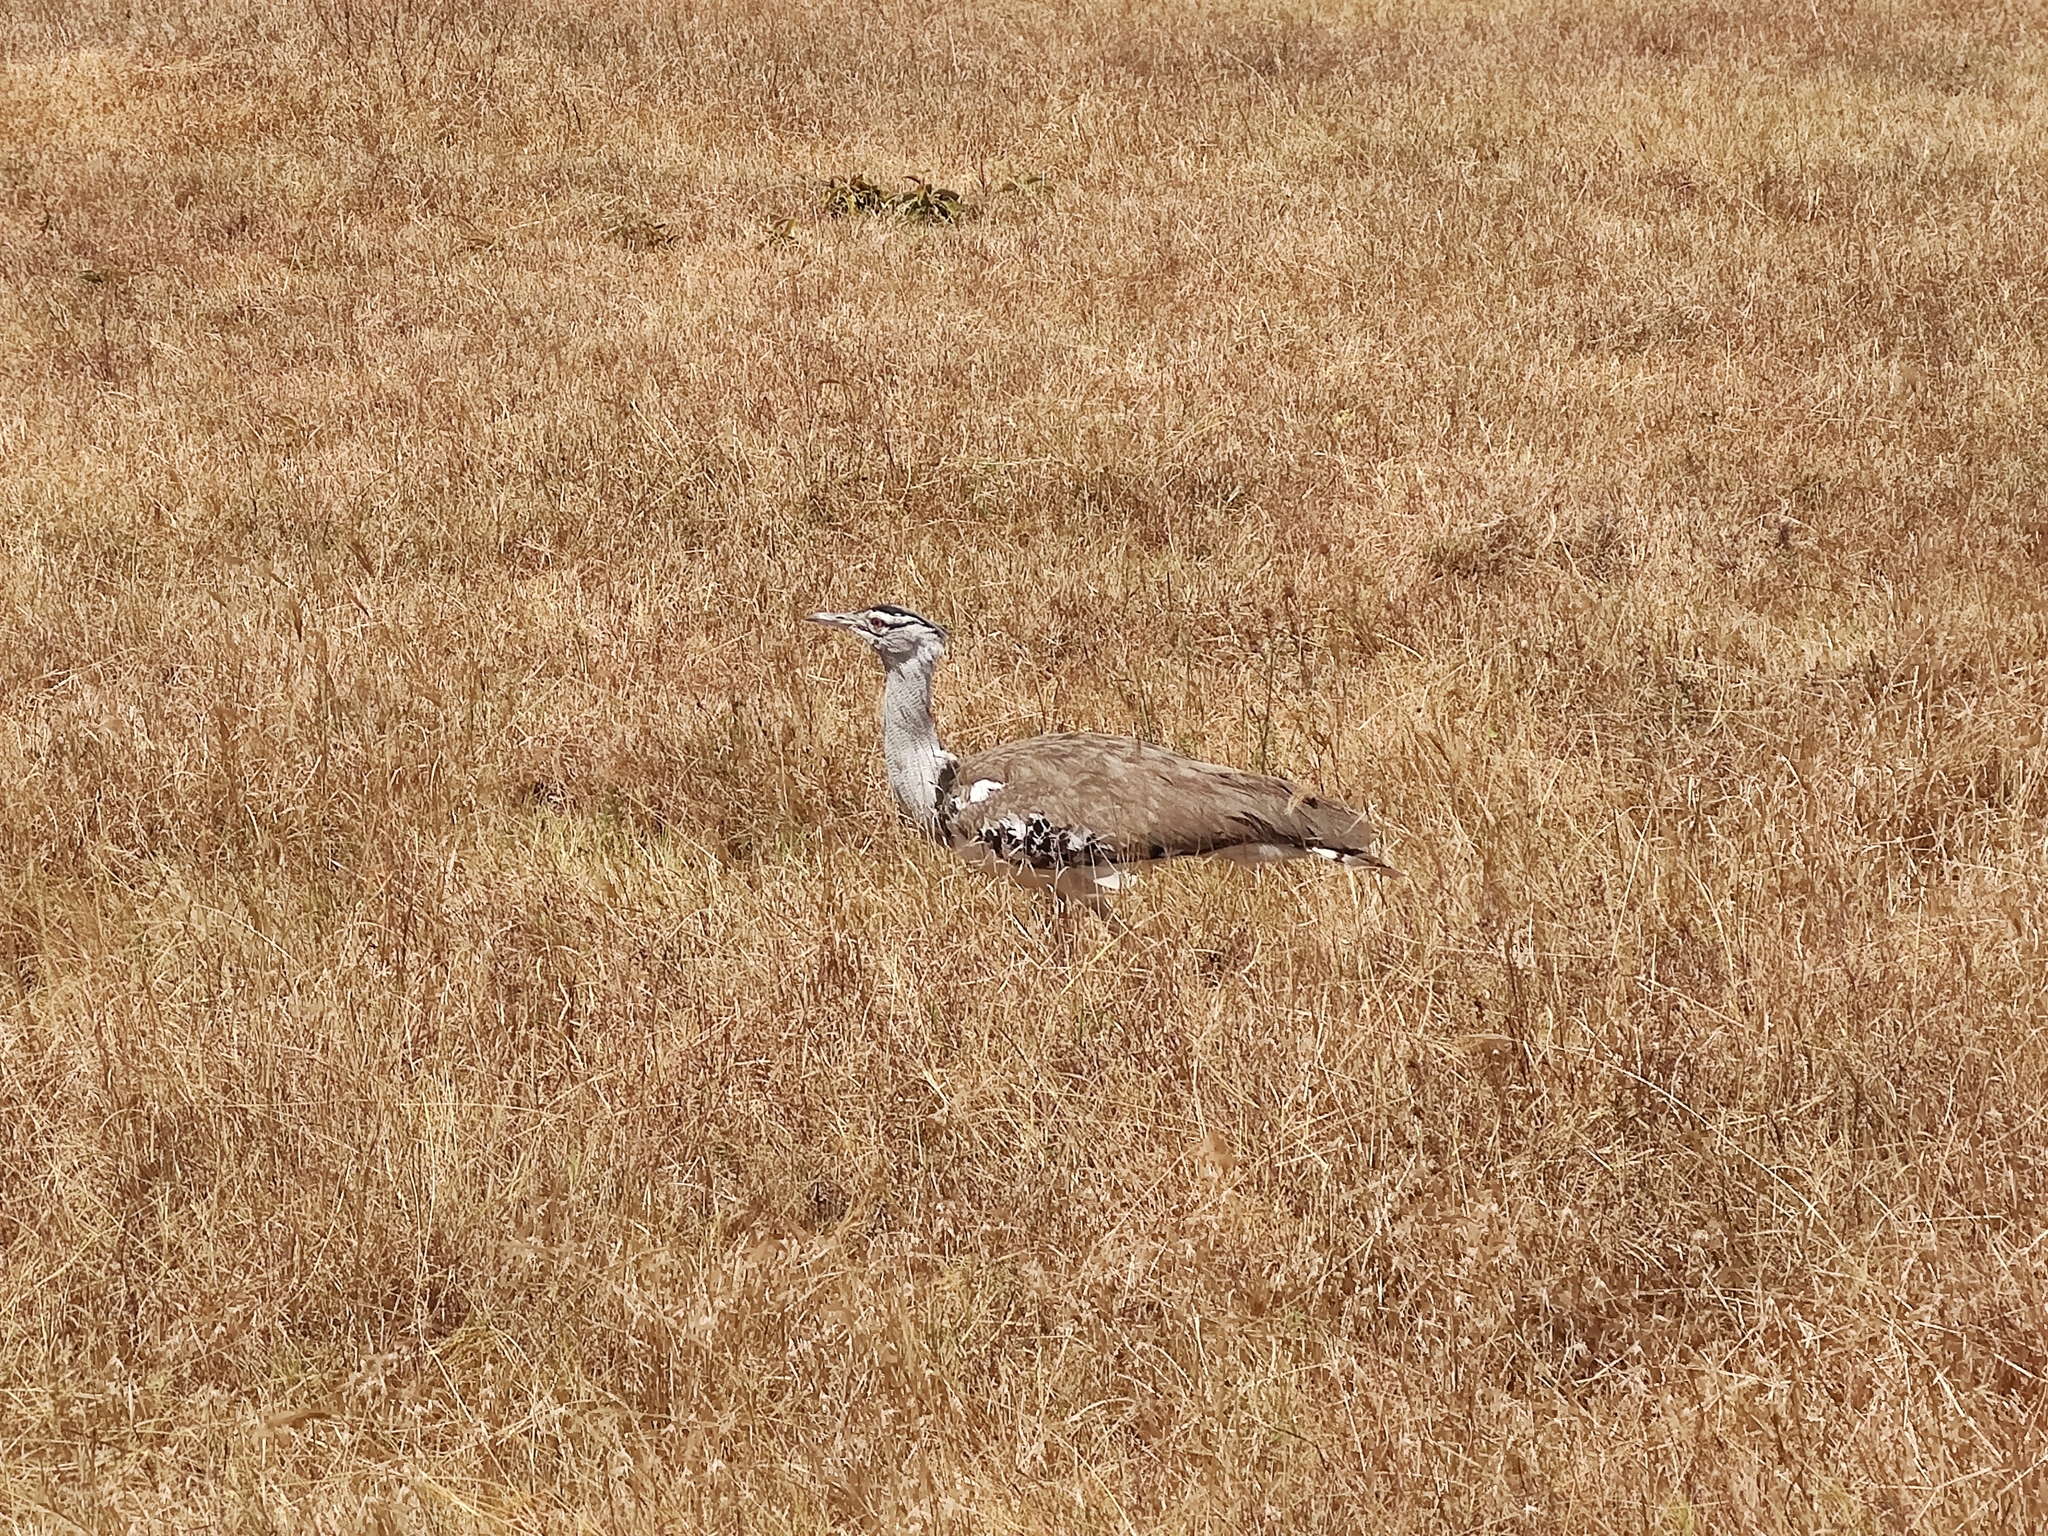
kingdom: Animalia
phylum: Chordata
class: Aves
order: Otidiformes
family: Otididae
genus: Ardeotis
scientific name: Ardeotis kori
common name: Kori bustard
